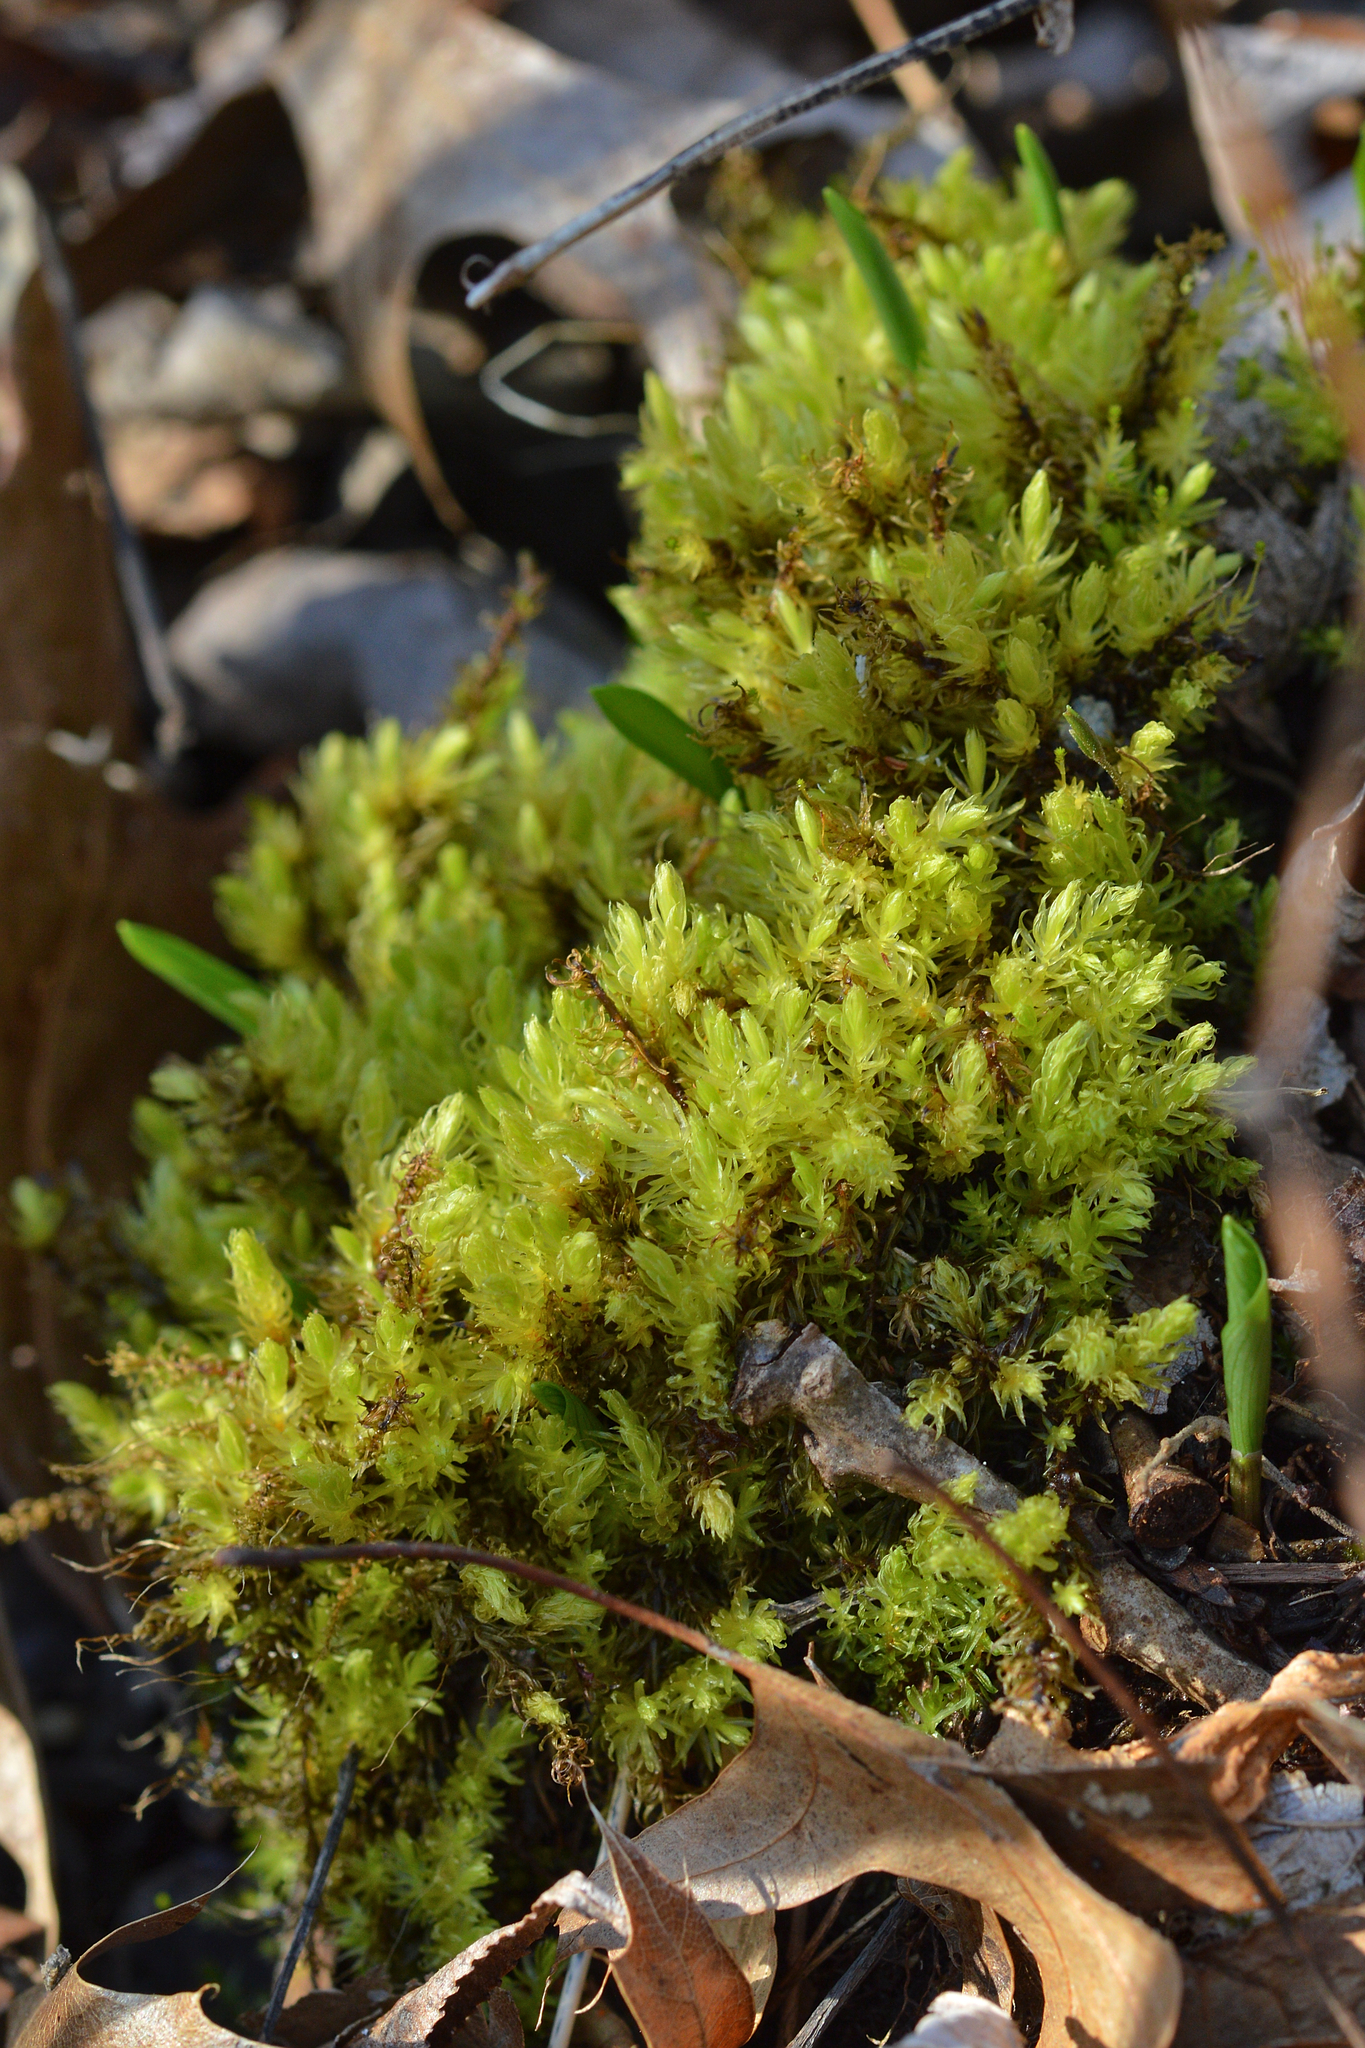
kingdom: Plantae
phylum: Bryophyta
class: Bryopsida
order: Aulacomniales
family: Aulacomniaceae
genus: Aulacomnium
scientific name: Aulacomnium palustre
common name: Bog groove-moss
